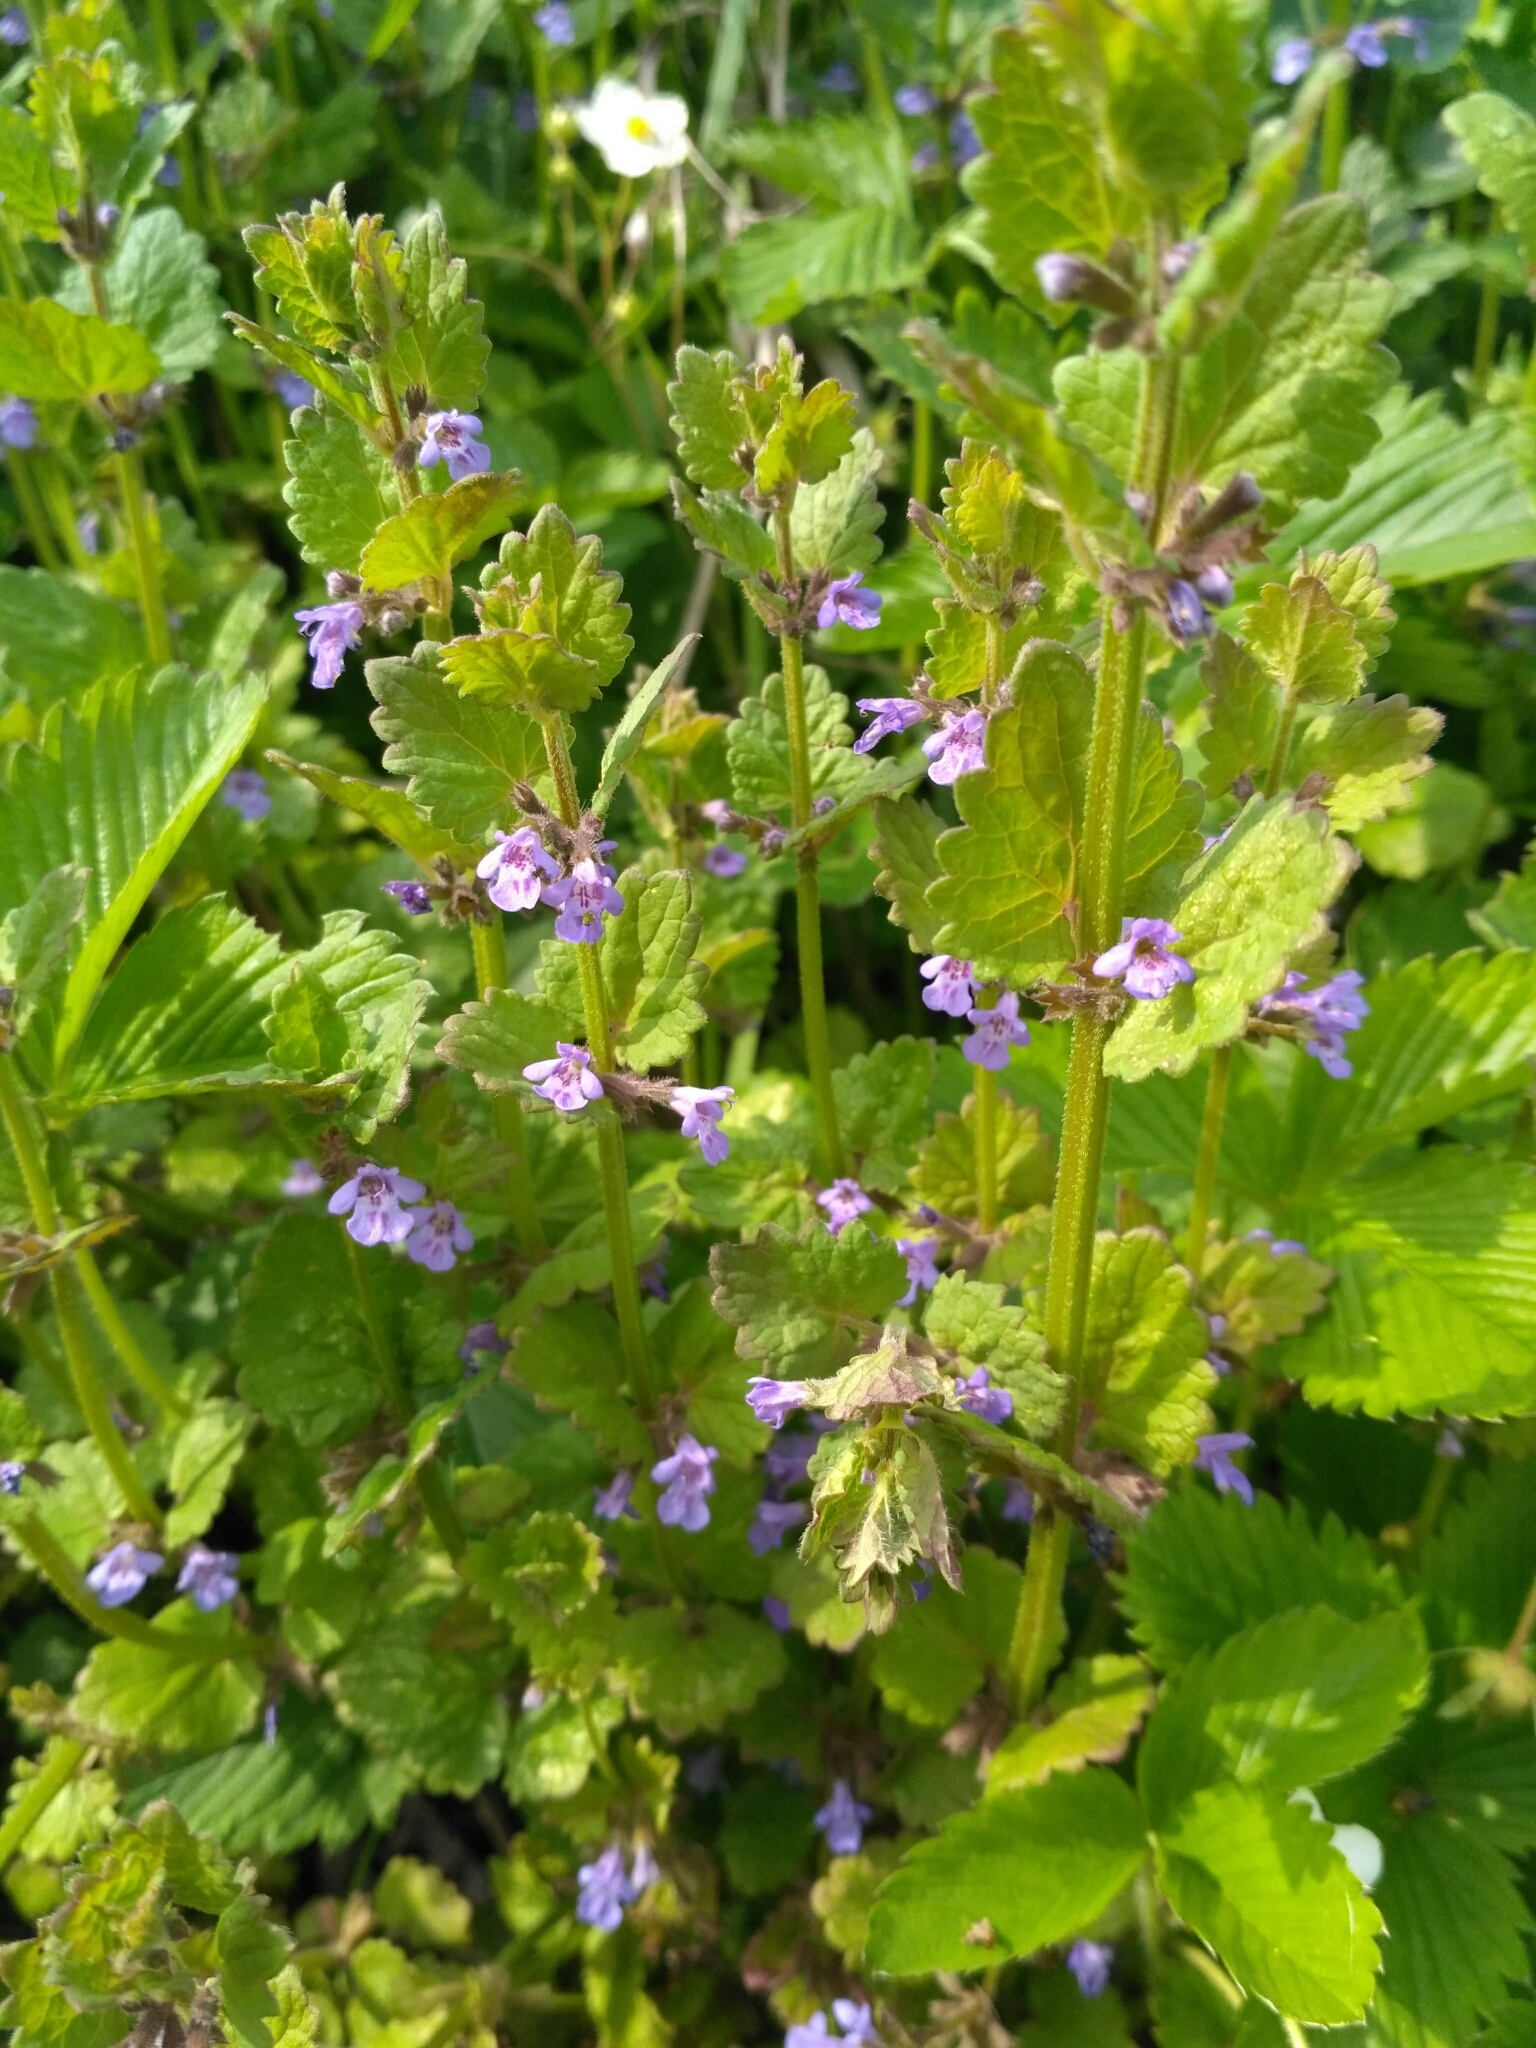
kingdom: Plantae
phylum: Tracheophyta
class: Magnoliopsida
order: Lamiales
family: Lamiaceae
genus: Glechoma
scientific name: Glechoma hederacea
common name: Ground ivy
